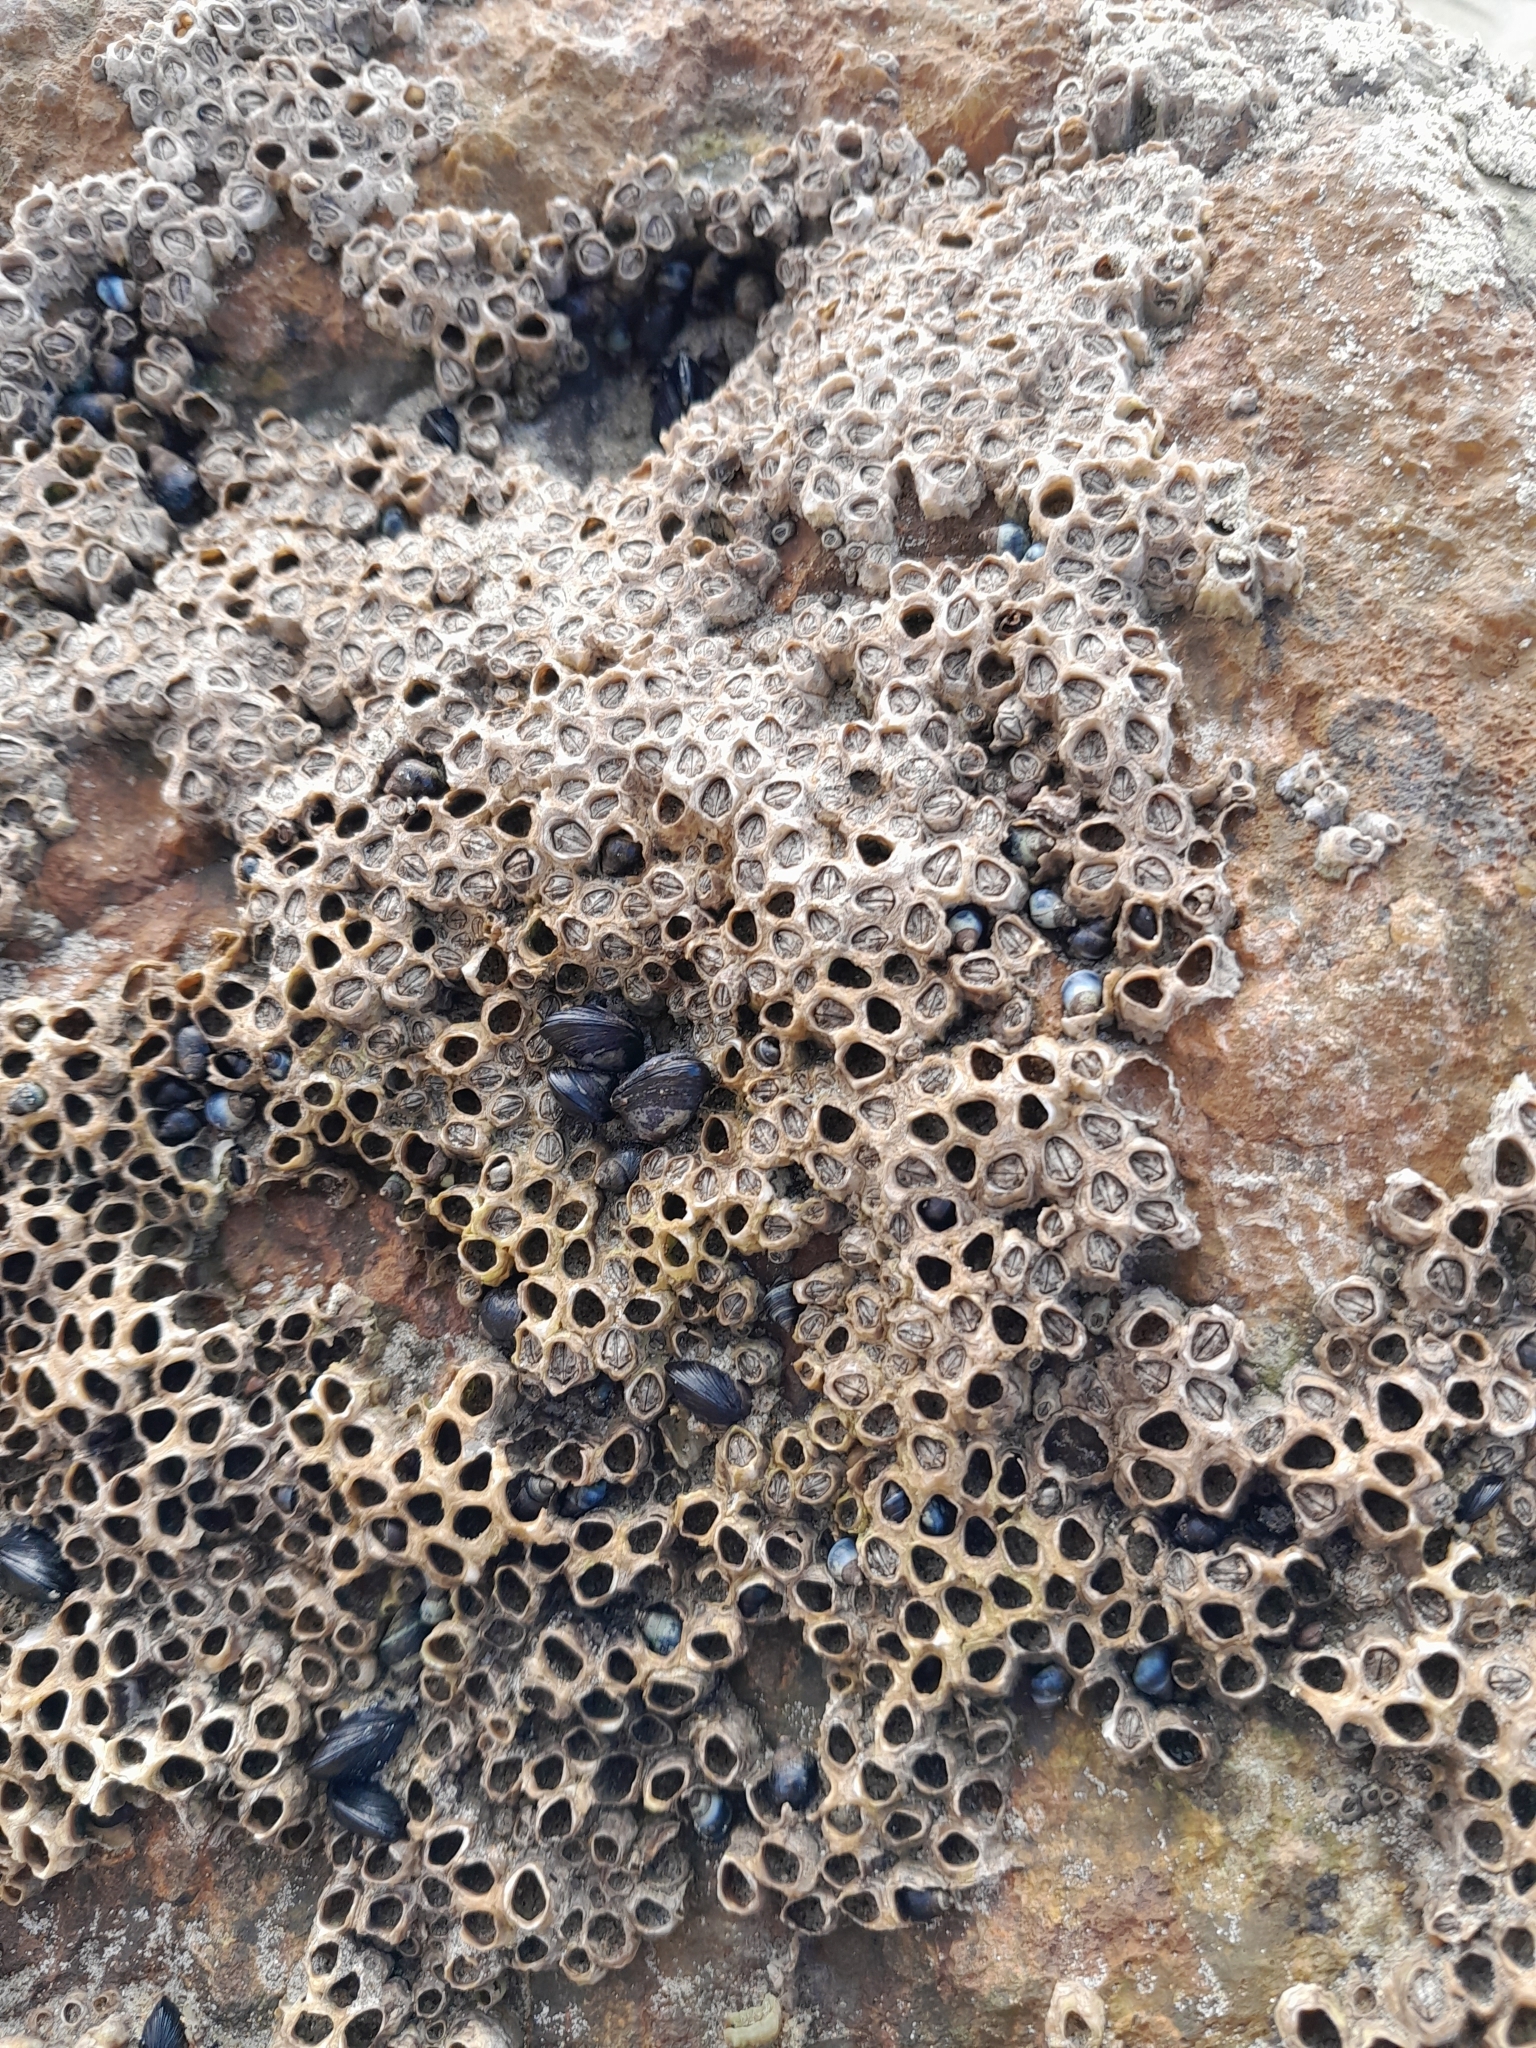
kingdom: Animalia
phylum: Mollusca
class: Bivalvia
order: Mytilida
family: Mytilidae
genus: Xenostrobus
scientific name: Xenostrobus neozelanicus
